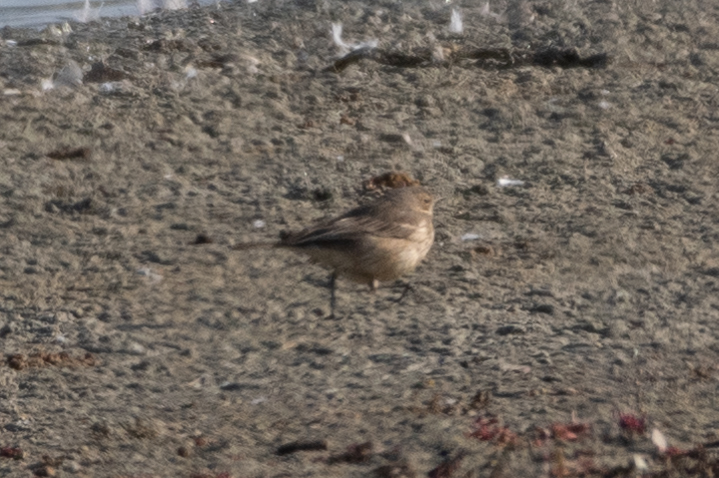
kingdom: Animalia
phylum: Chordata
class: Aves
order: Passeriformes
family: Motacillidae
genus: Anthus
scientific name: Anthus rubescens
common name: Buff-bellied pipit
